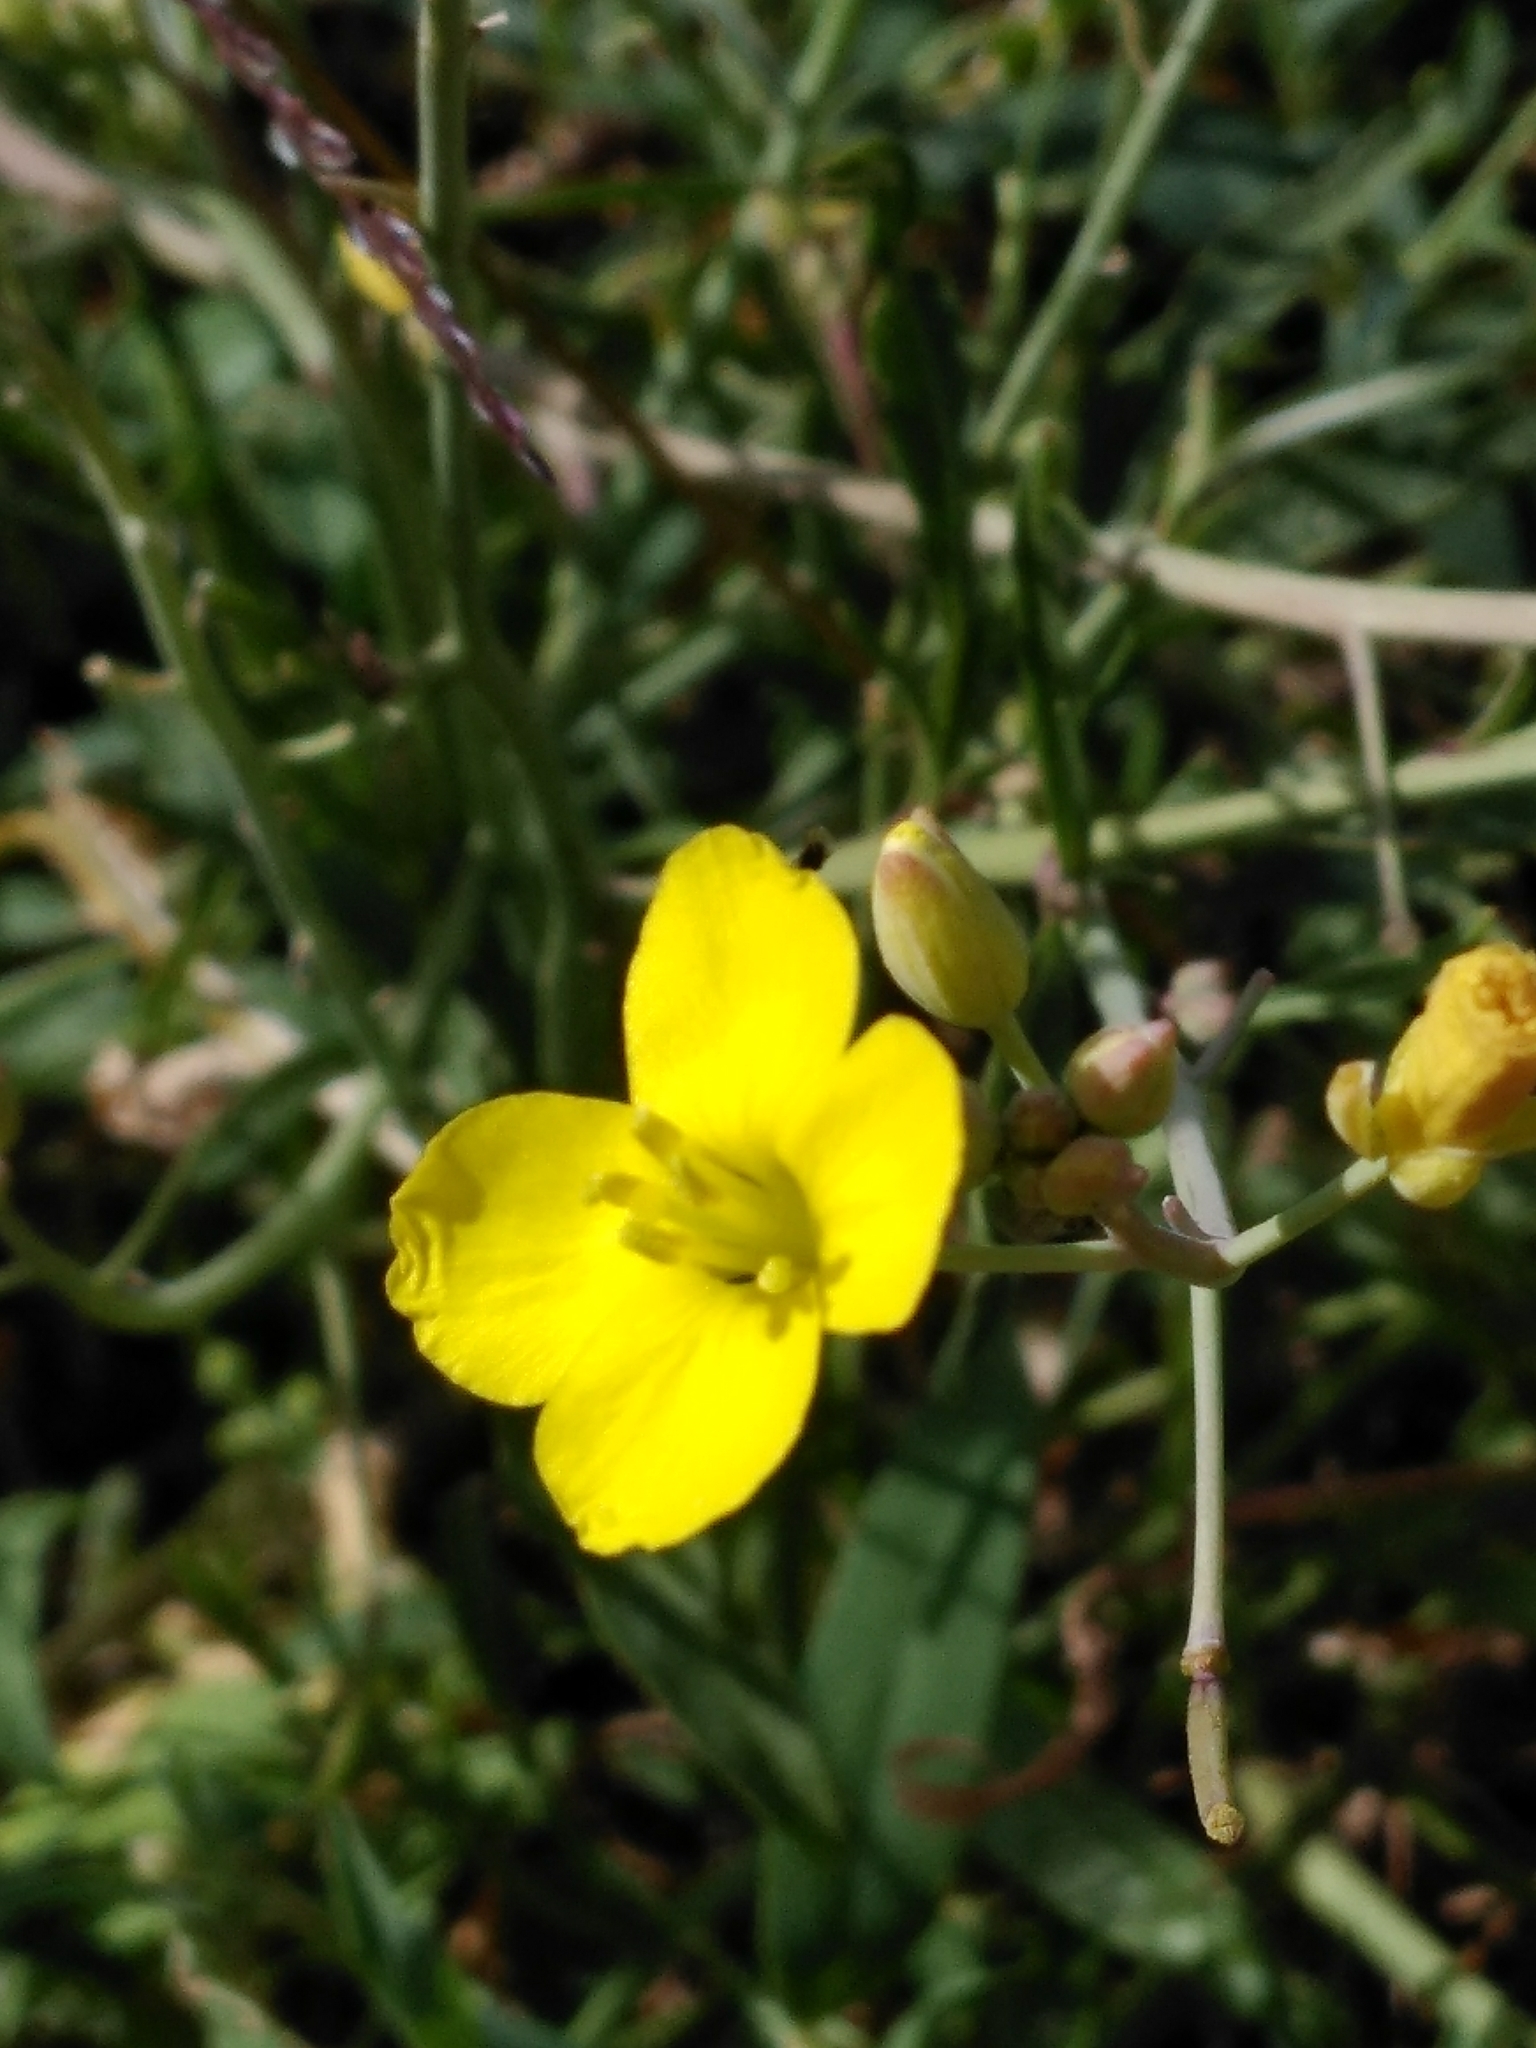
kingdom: Plantae
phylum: Tracheophyta
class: Magnoliopsida
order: Brassicales
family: Brassicaceae
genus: Diplotaxis
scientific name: Diplotaxis tenuifolia
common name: Perennial wall-rocket
